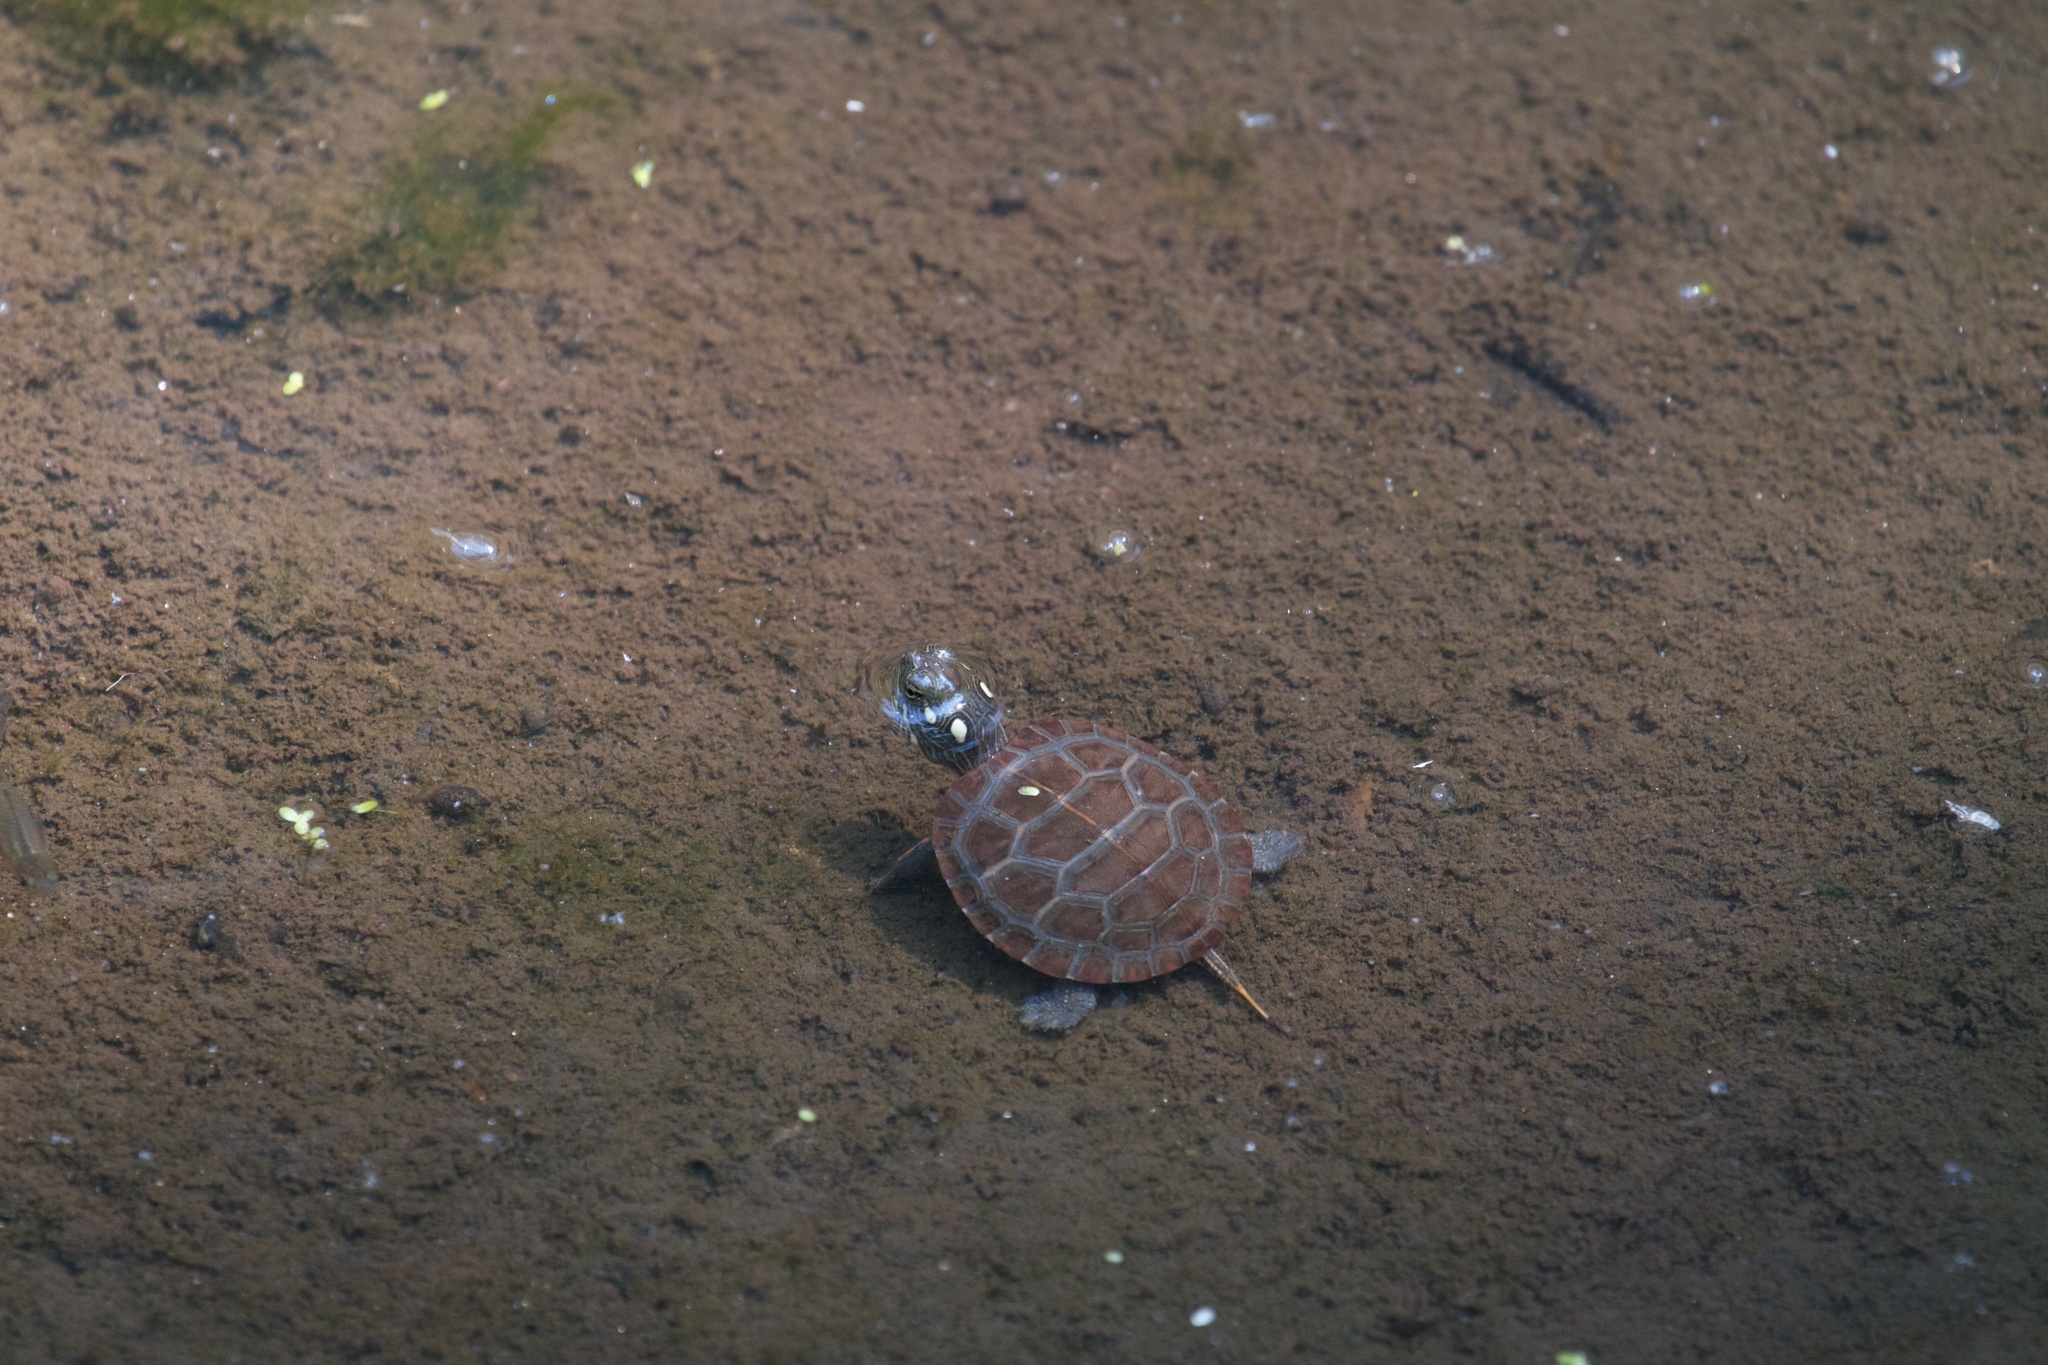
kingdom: Animalia
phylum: Chordata
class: Testudines
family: Emydidae
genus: Chrysemys
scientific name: Chrysemys picta
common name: Painted turtle
